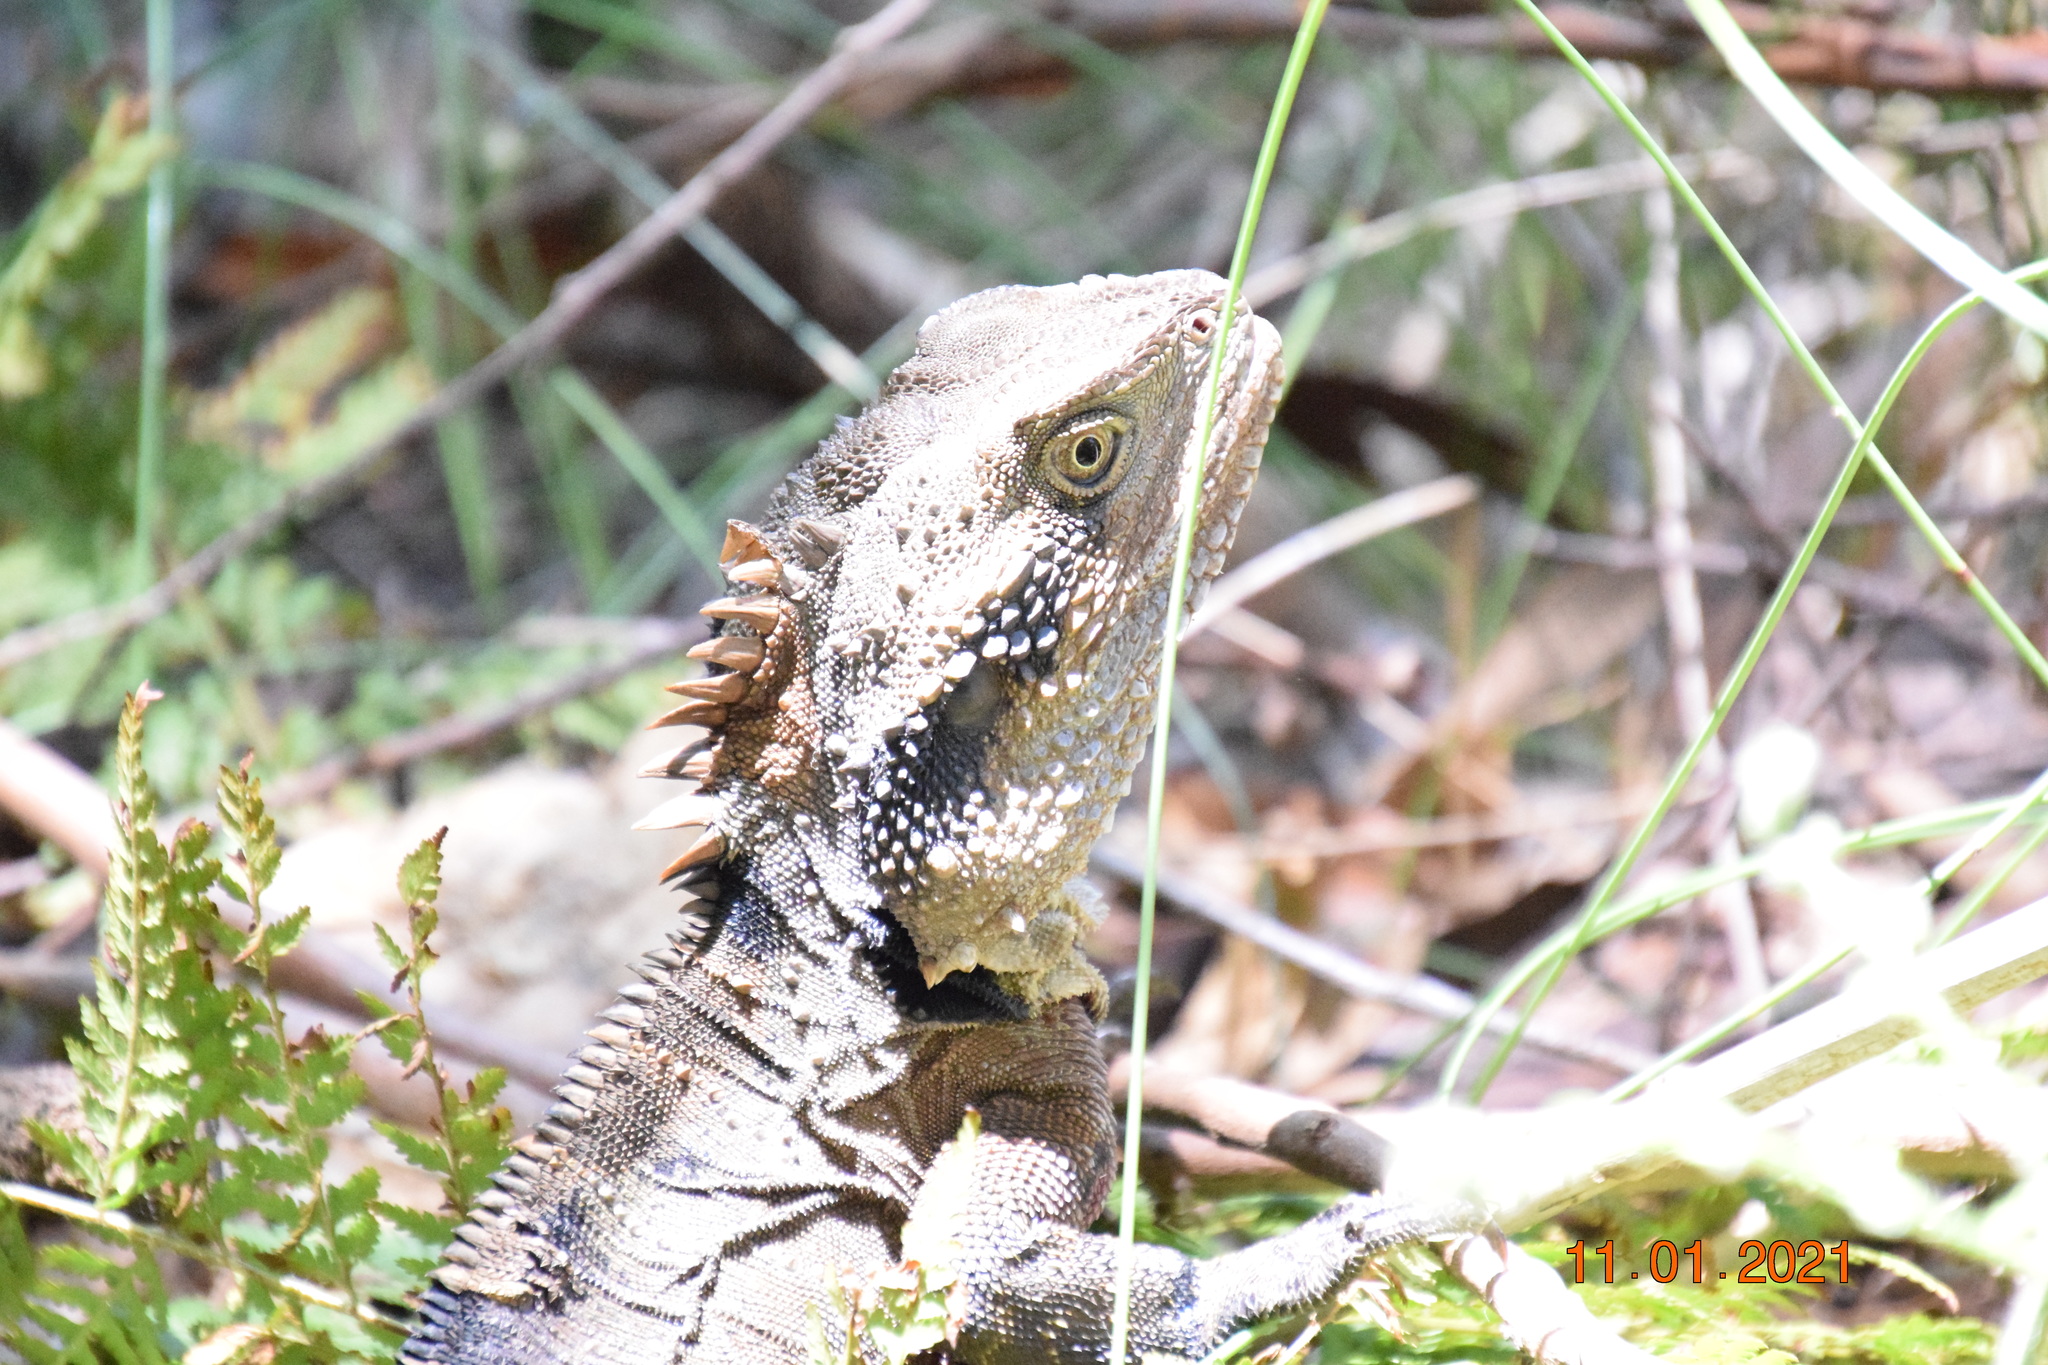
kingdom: Animalia
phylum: Chordata
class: Squamata
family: Agamidae
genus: Intellagama
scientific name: Intellagama lesueurii
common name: Eastern water dragon
